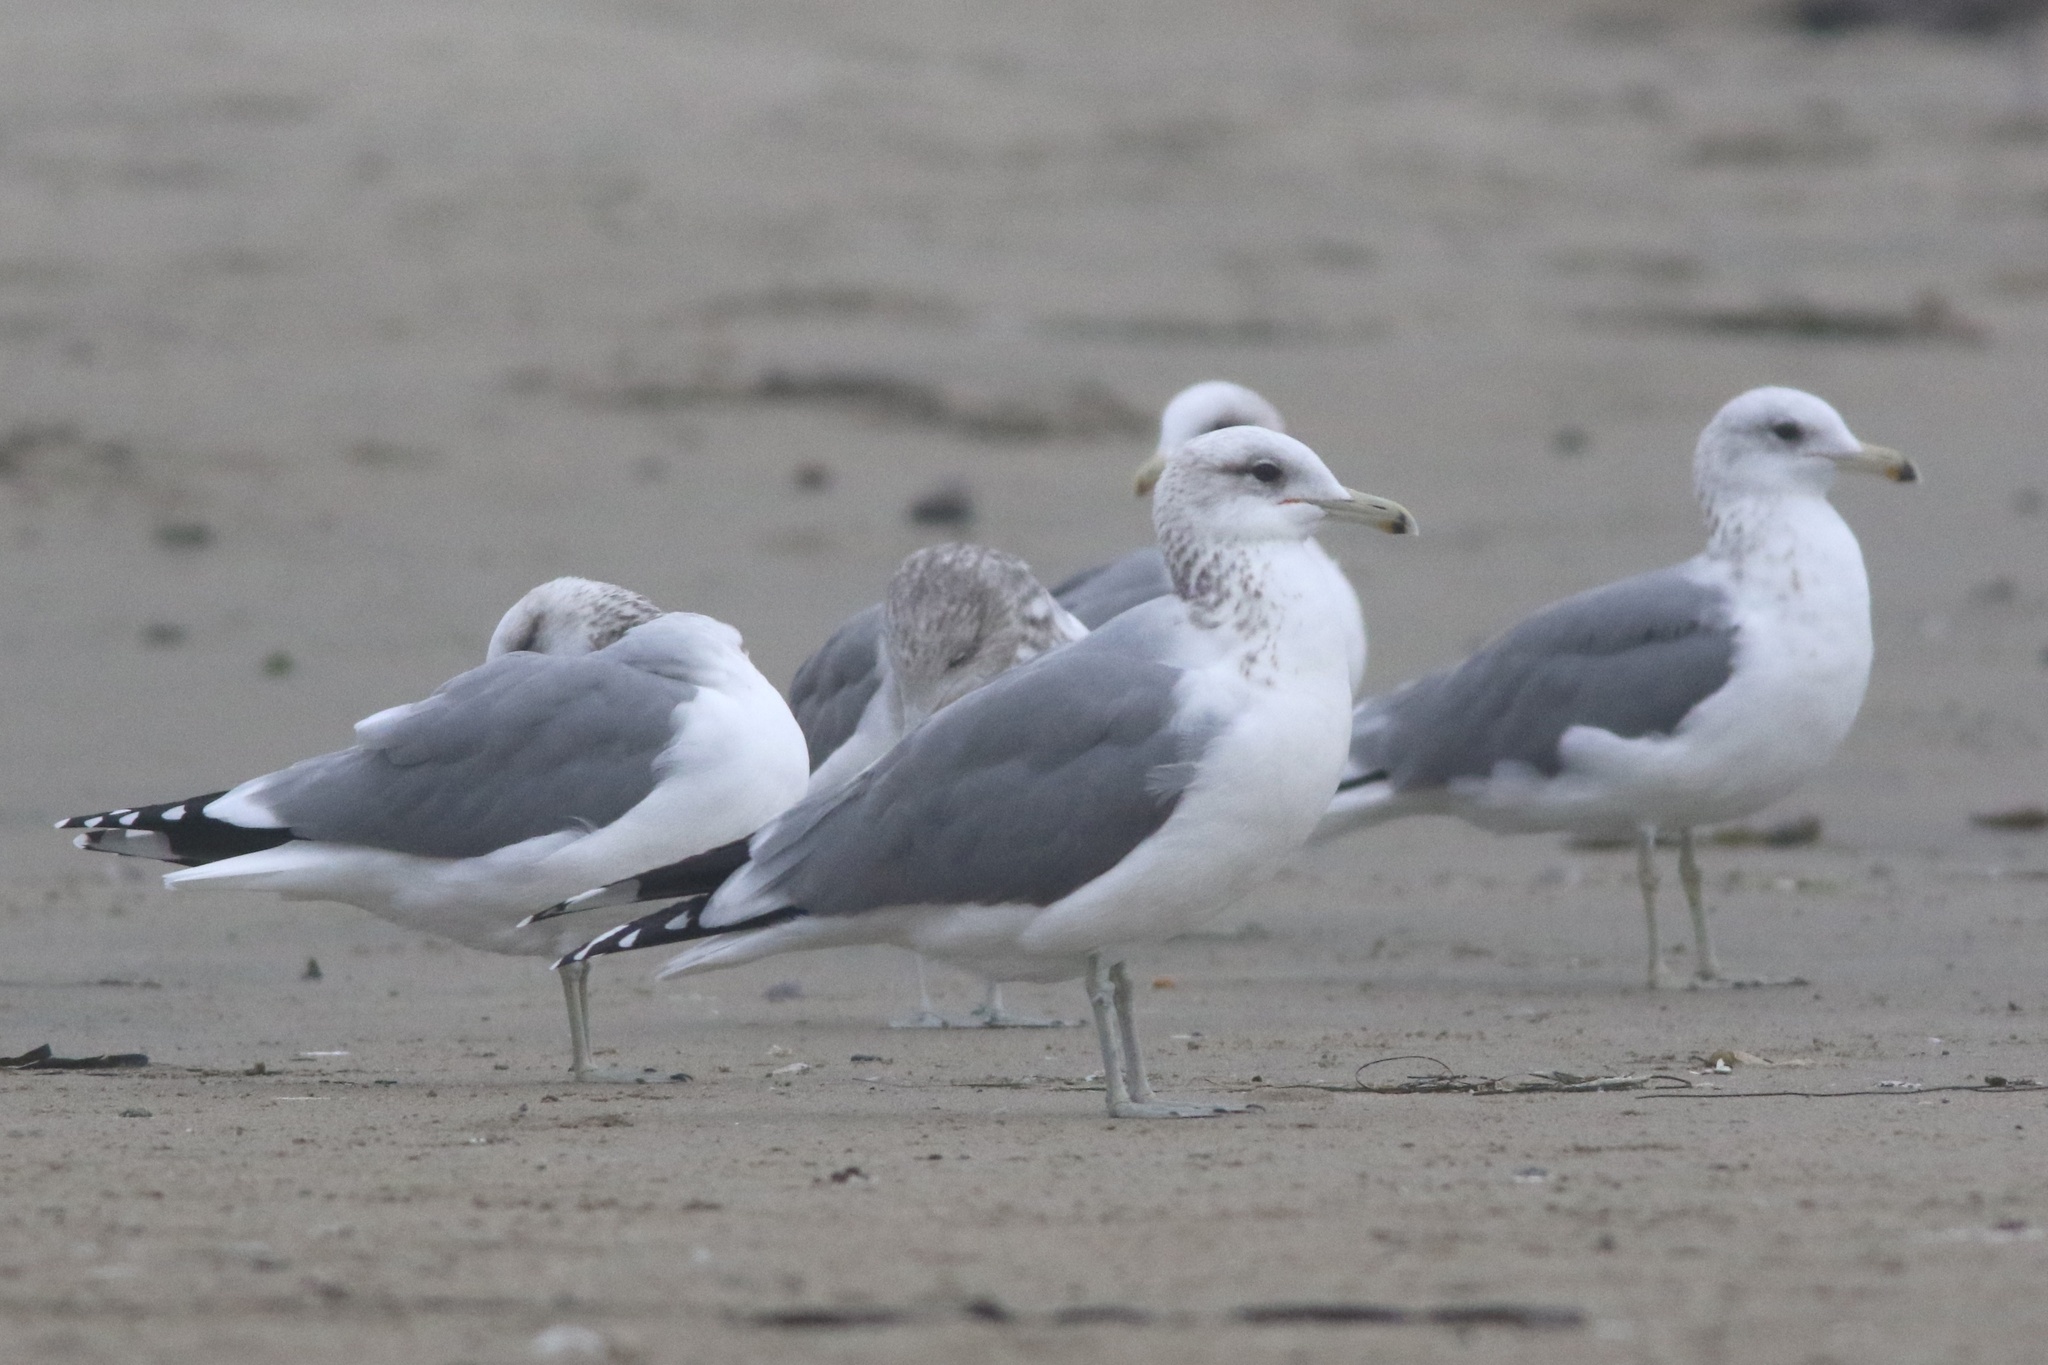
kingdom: Animalia
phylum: Chordata
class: Aves
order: Charadriiformes
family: Laridae
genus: Larus
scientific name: Larus californicus
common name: California gull
